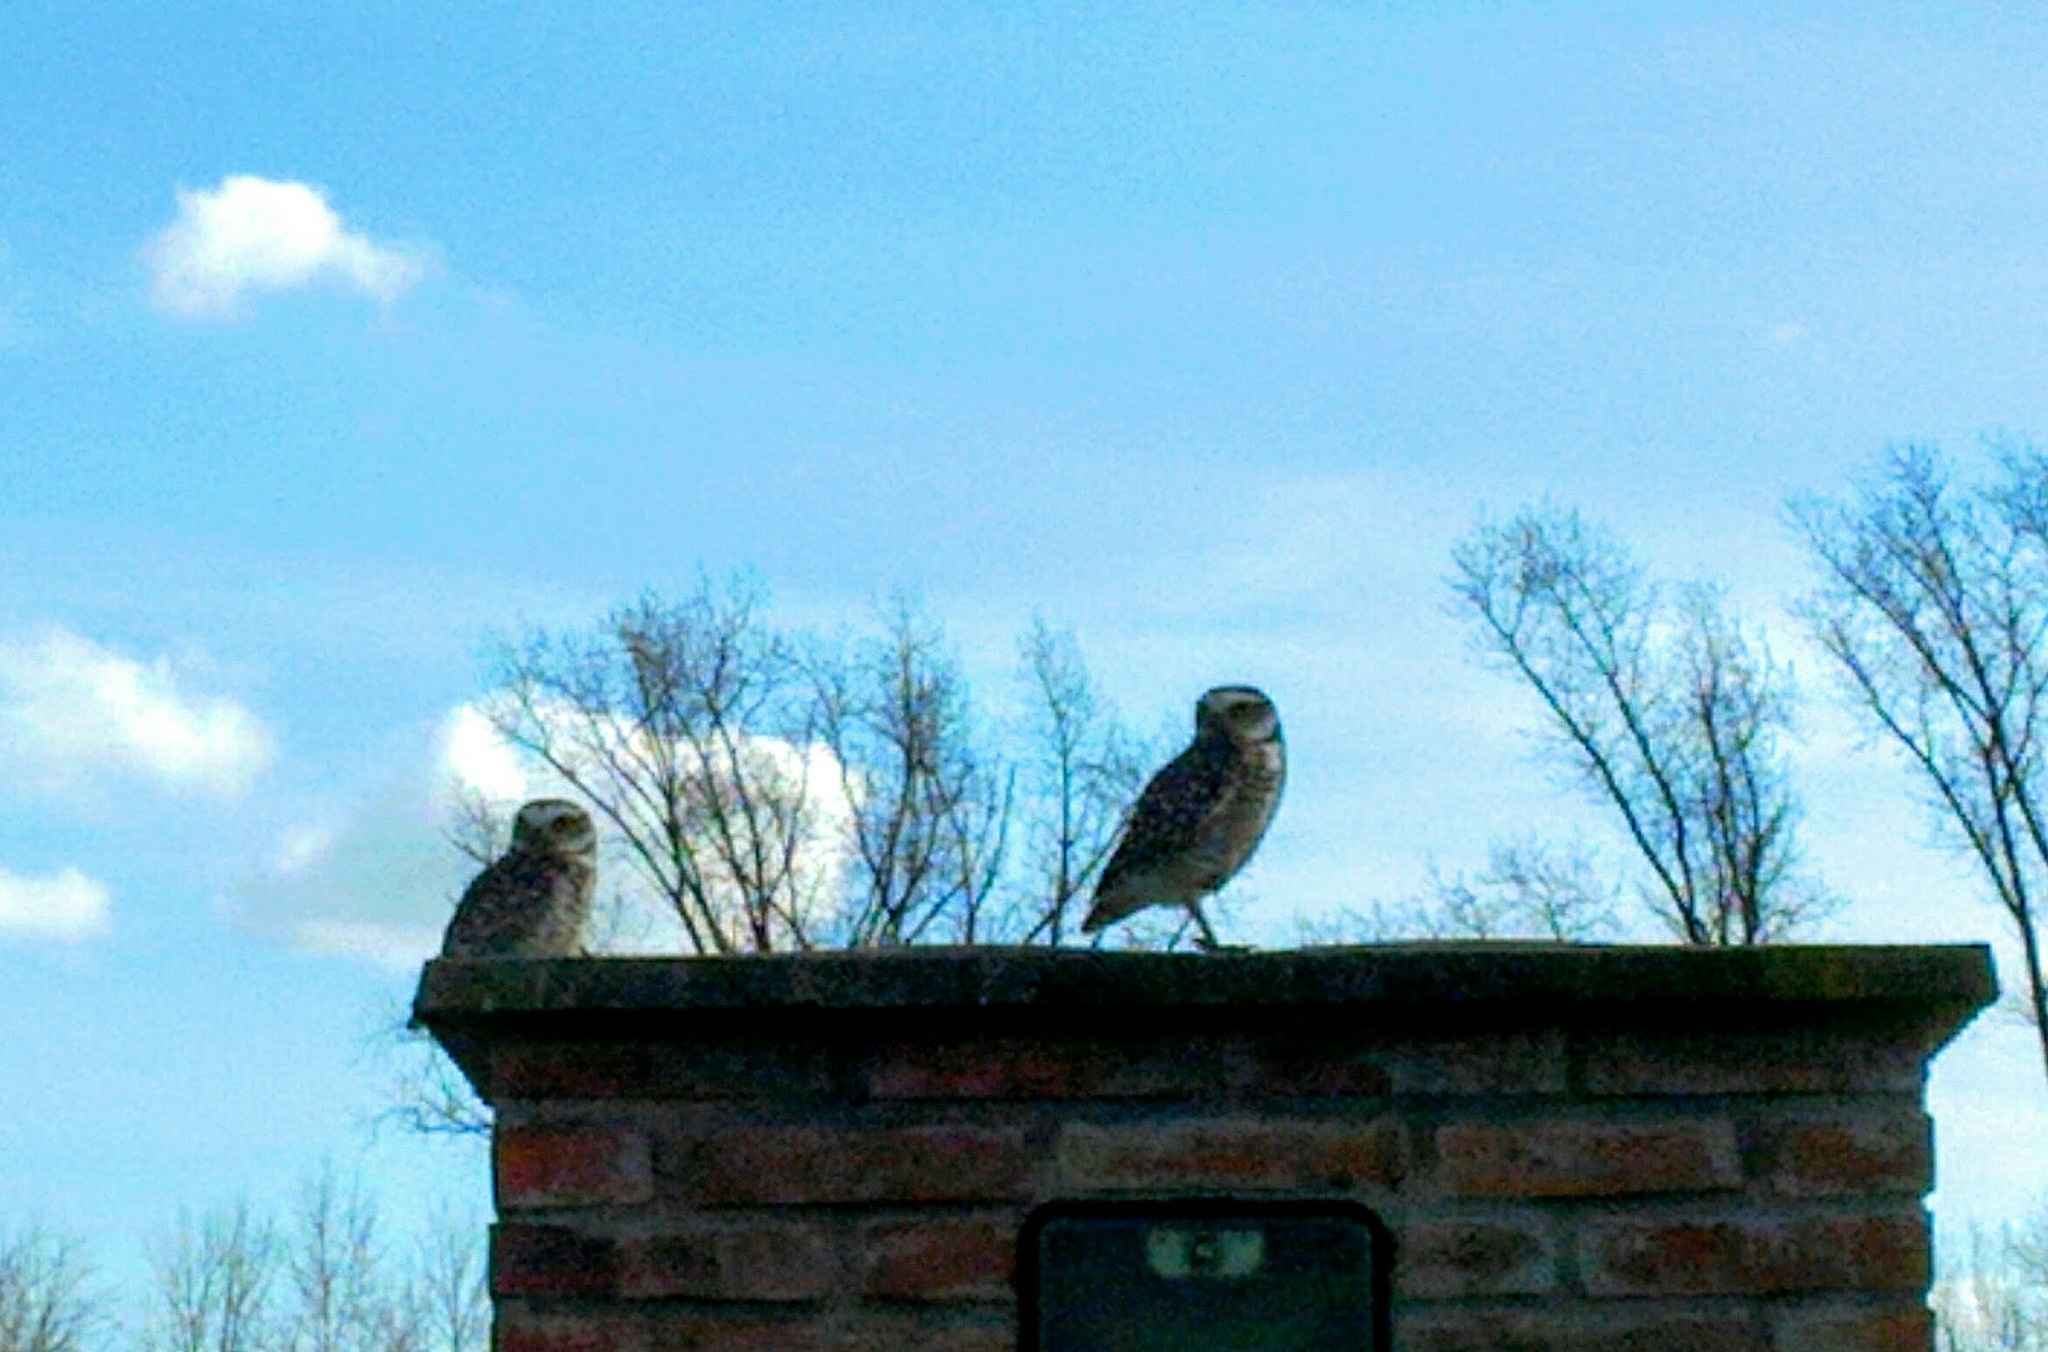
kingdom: Animalia
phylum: Chordata
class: Aves
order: Strigiformes
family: Strigidae
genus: Athene
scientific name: Athene cunicularia
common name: Burrowing owl
